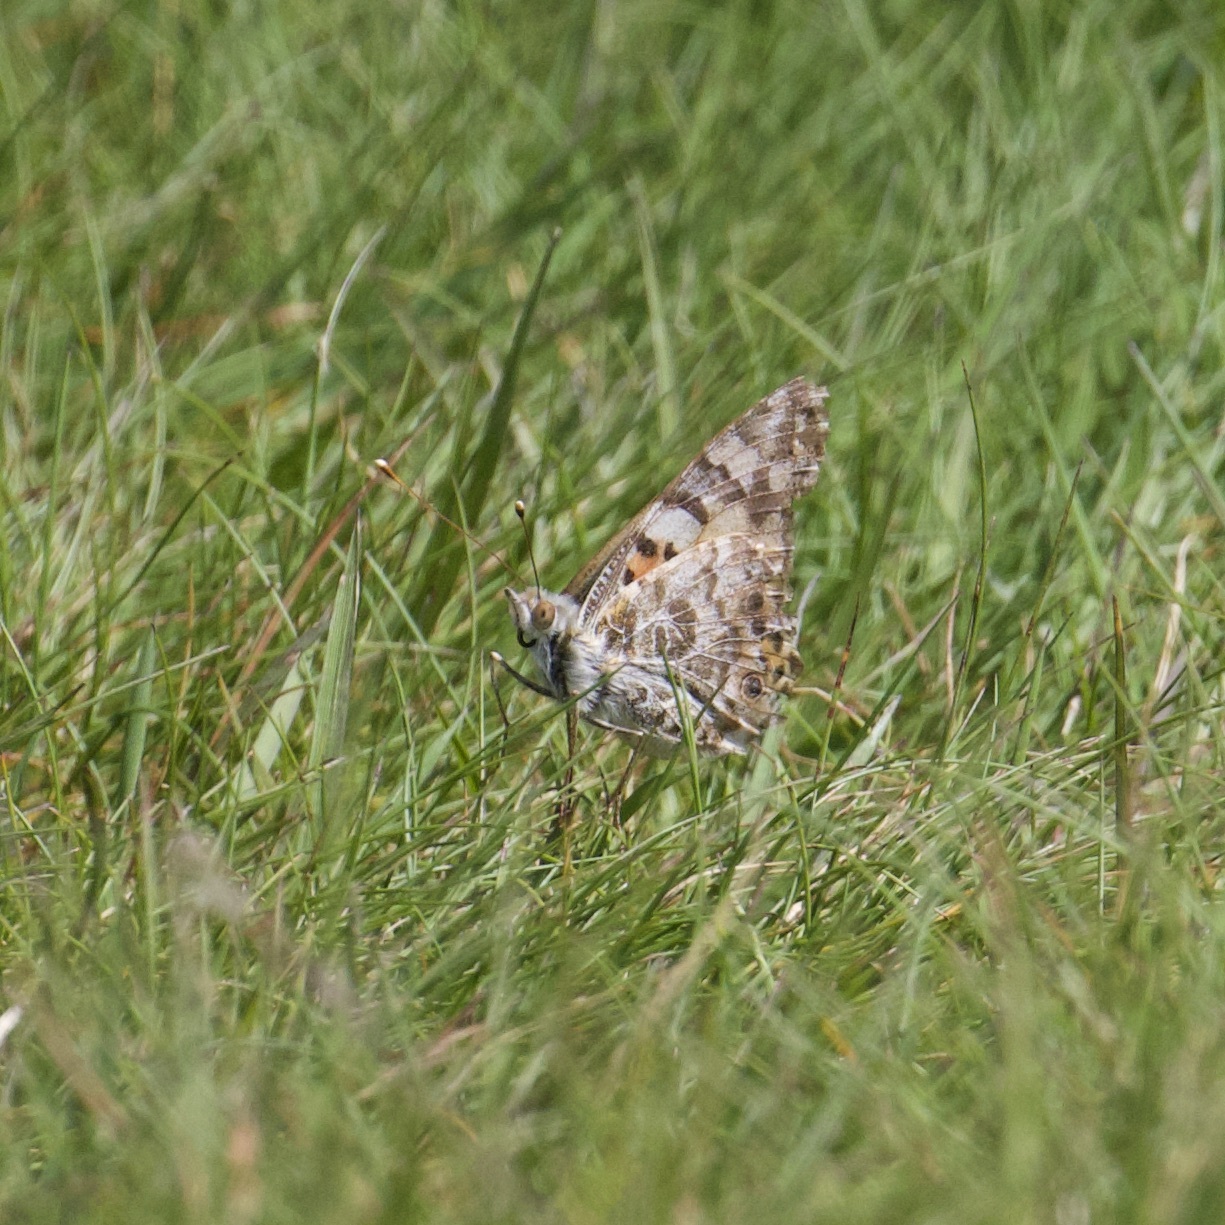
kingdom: Animalia
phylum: Arthropoda
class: Insecta
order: Lepidoptera
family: Nymphalidae
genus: Vanessa
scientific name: Vanessa cardui
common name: Painted lady
